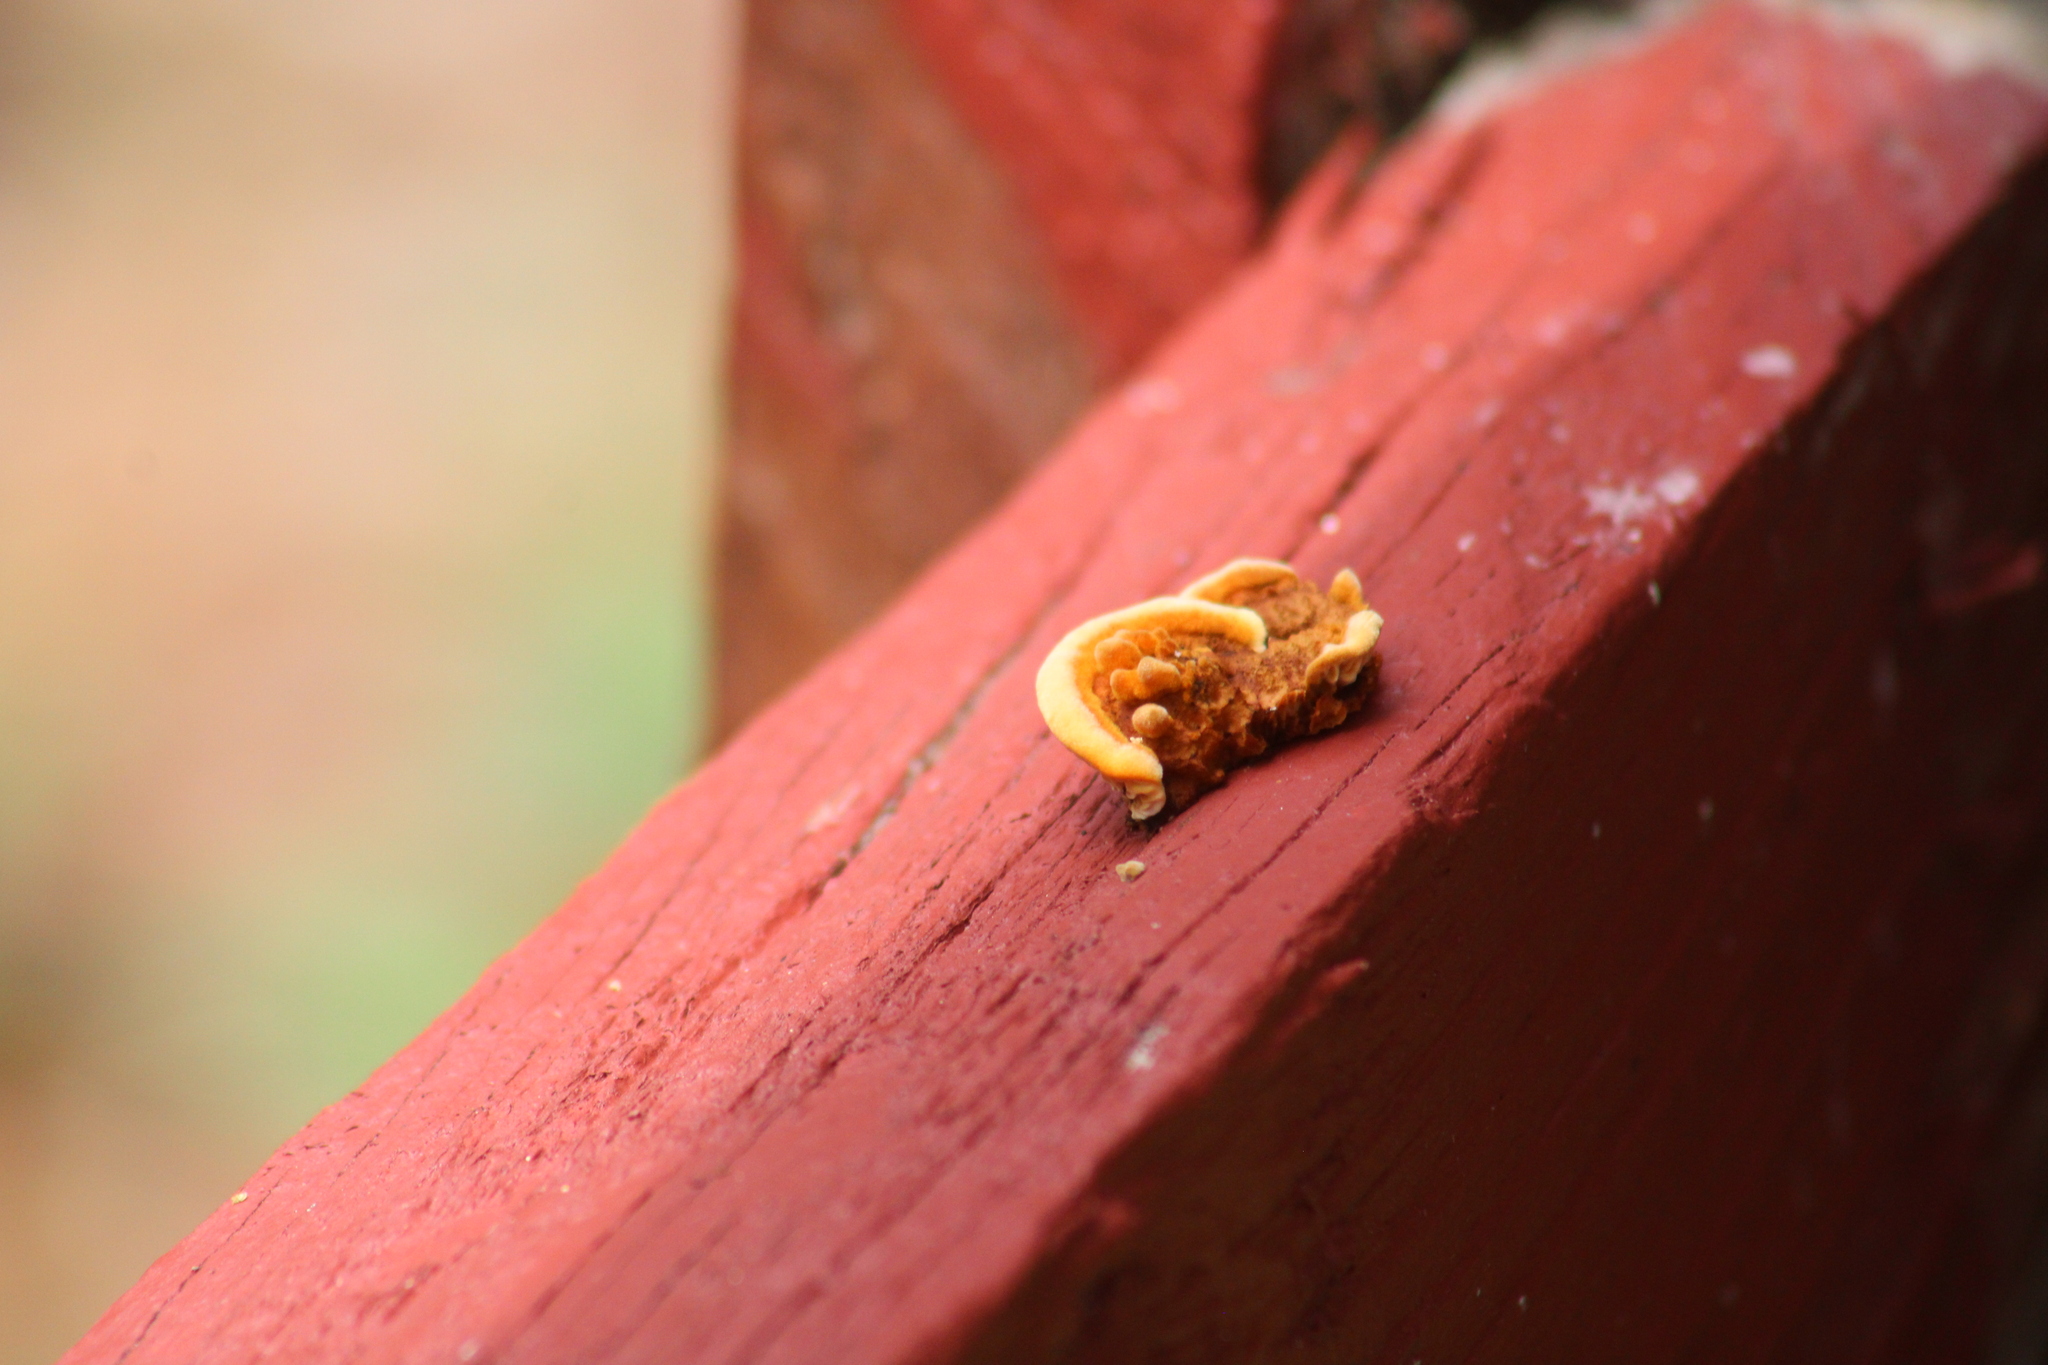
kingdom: Fungi
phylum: Basidiomycota
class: Agaricomycetes
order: Gloeophyllales
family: Gloeophyllaceae
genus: Gloeophyllum
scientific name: Gloeophyllum sepiarium
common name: Conifer mazegill
